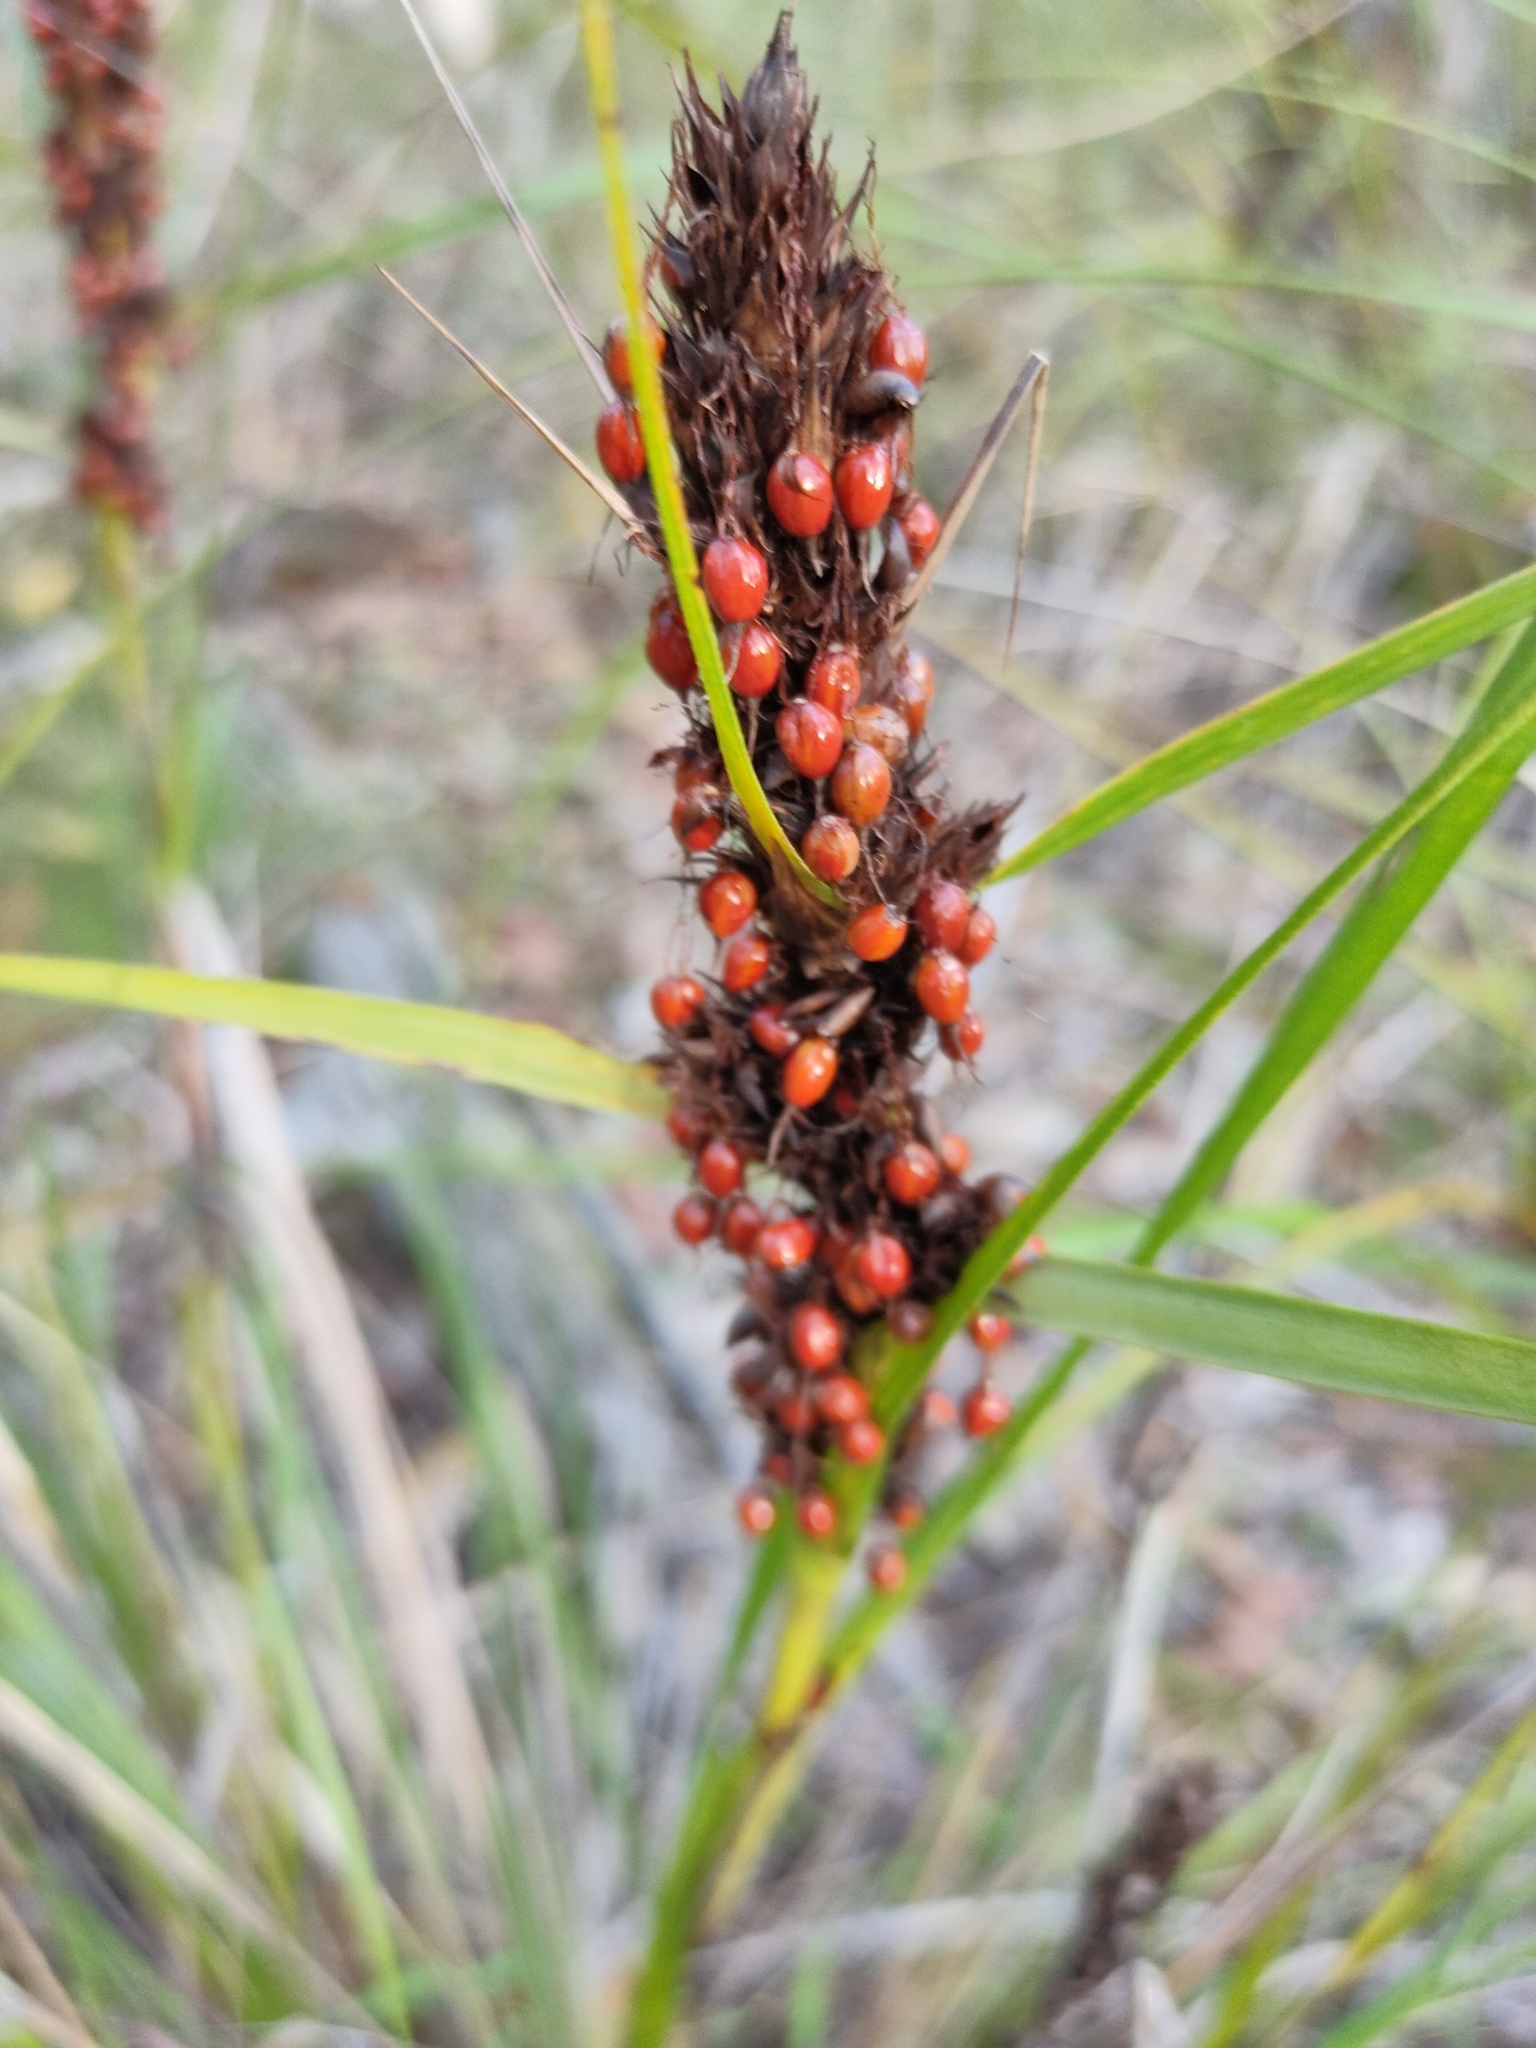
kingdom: Plantae
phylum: Tracheophyta
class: Liliopsida
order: Poales
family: Cyperaceae
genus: Gahnia
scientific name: Gahnia aspera
